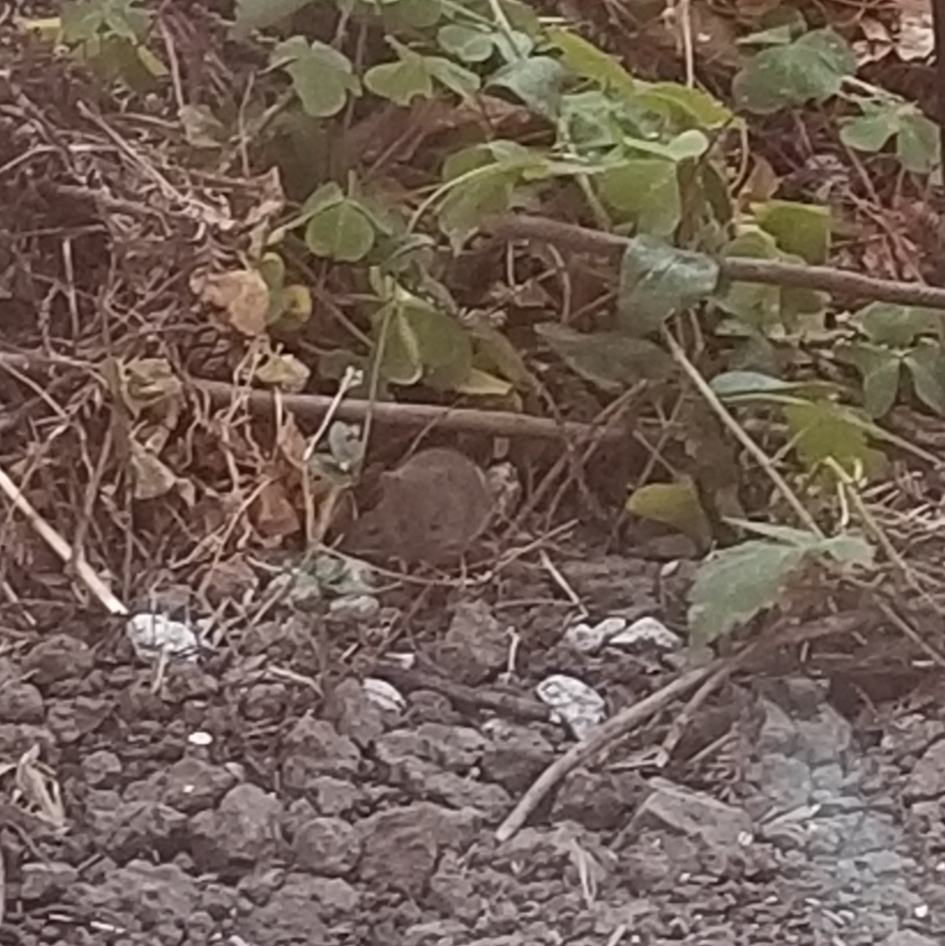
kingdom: Animalia
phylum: Chordata
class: Mammalia
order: Rodentia
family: Cricetidae
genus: Microtus
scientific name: Microtus californicus
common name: California vole
